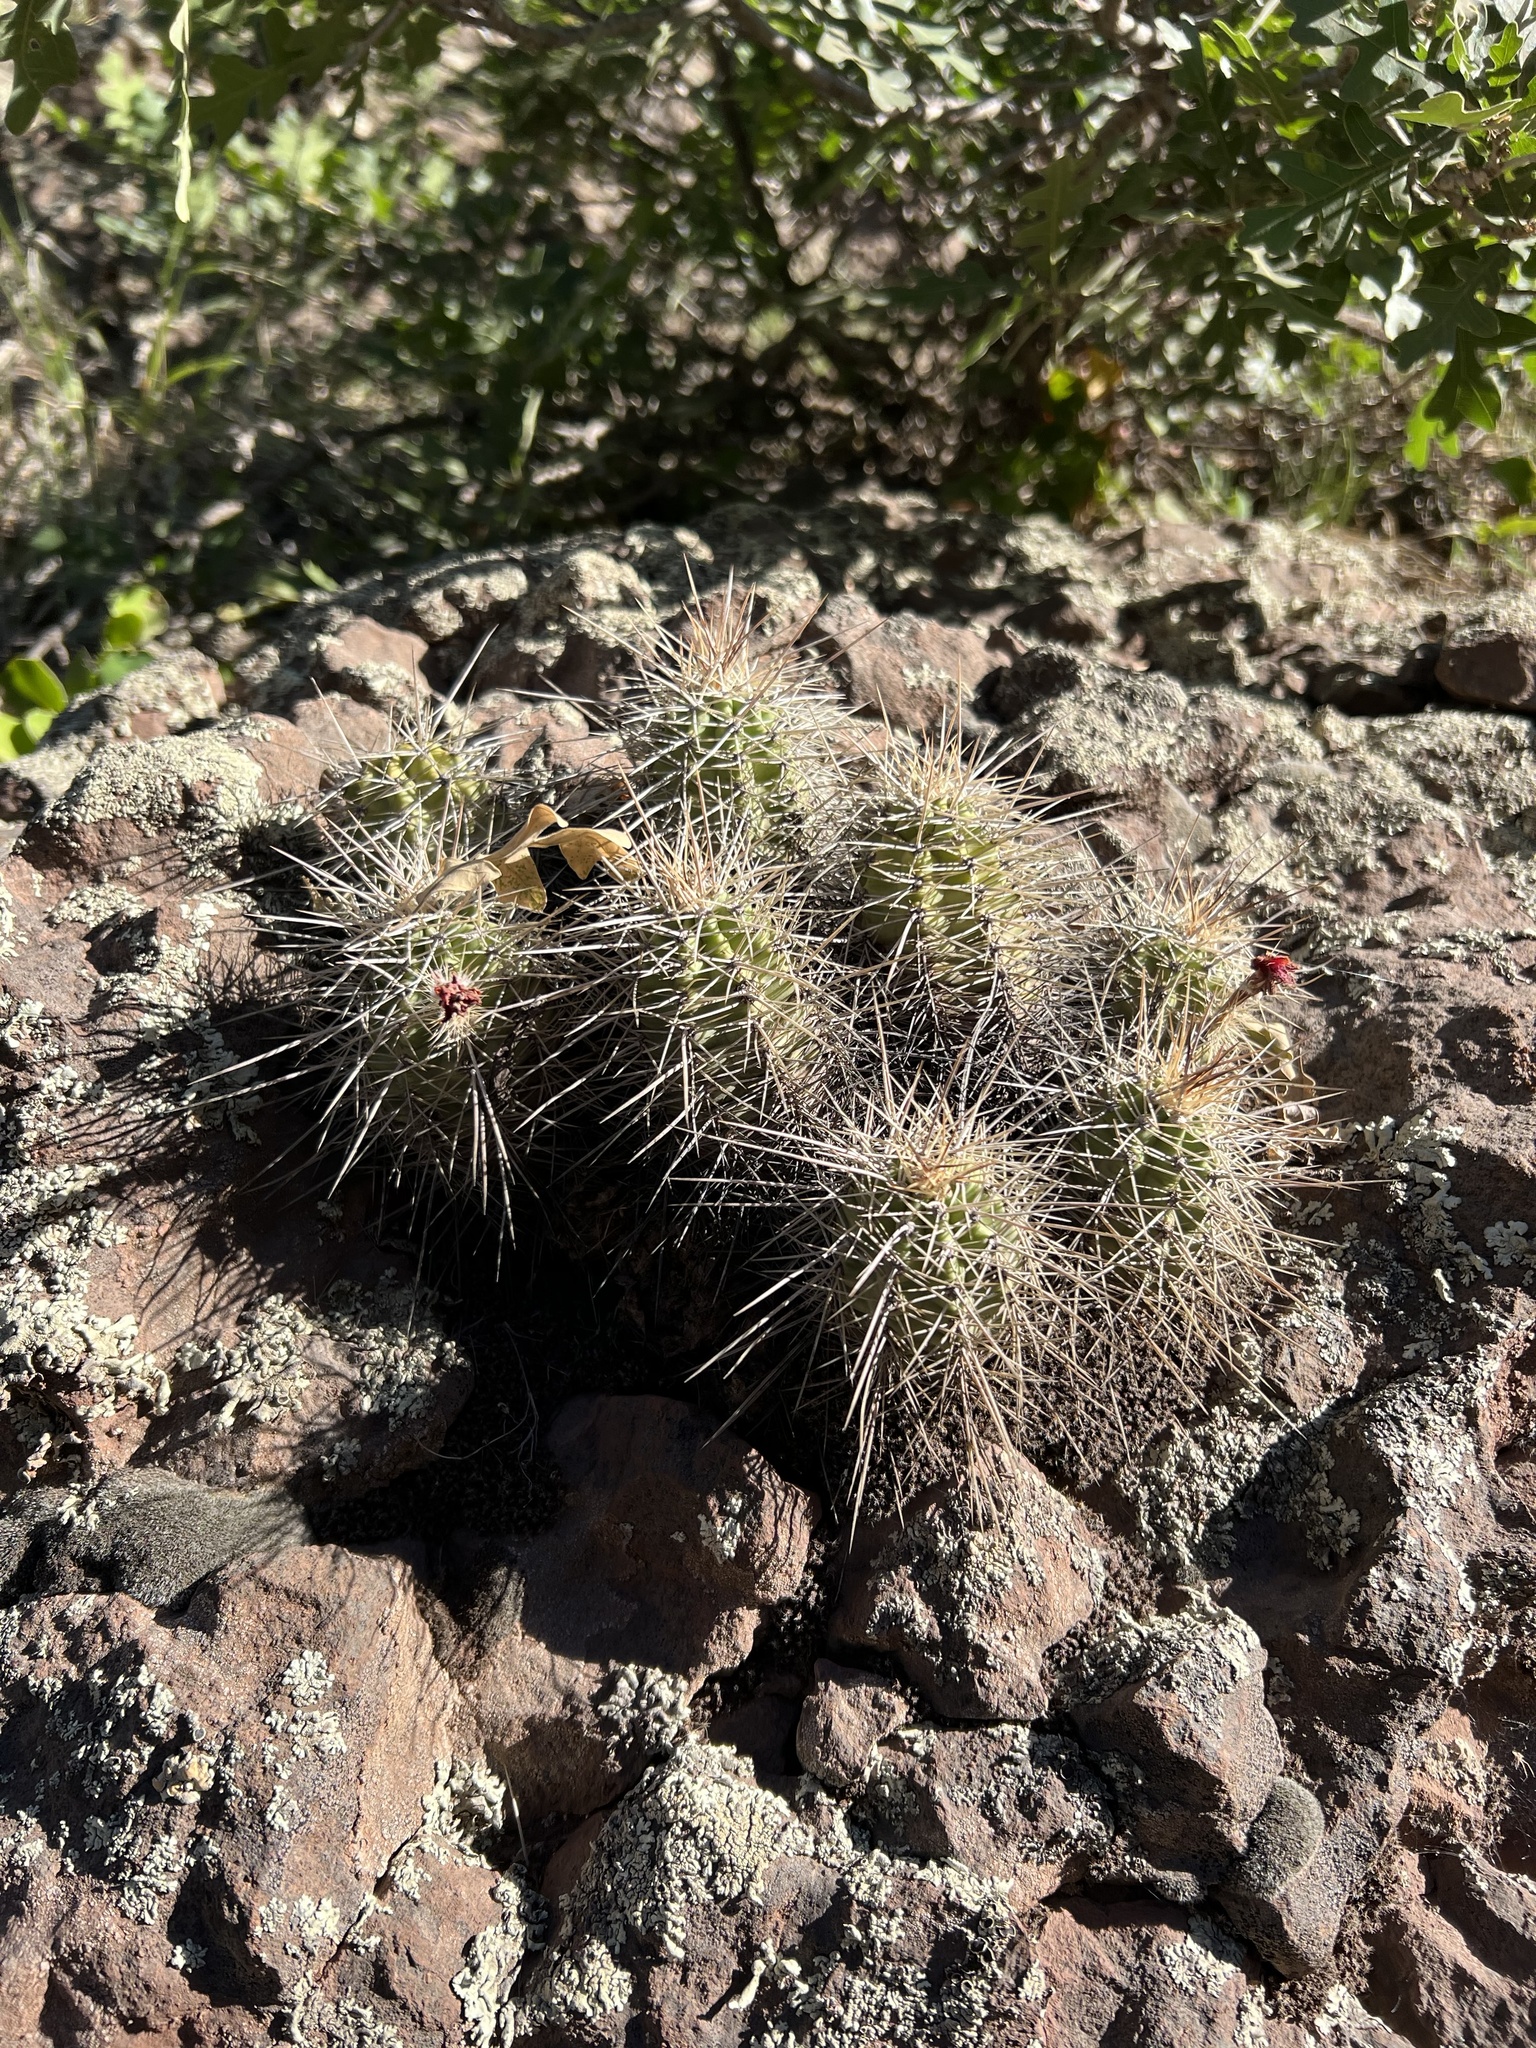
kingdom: Plantae
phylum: Tracheophyta
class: Magnoliopsida
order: Caryophyllales
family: Cactaceae
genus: Echinocereus
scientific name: Echinocereus bakeri
